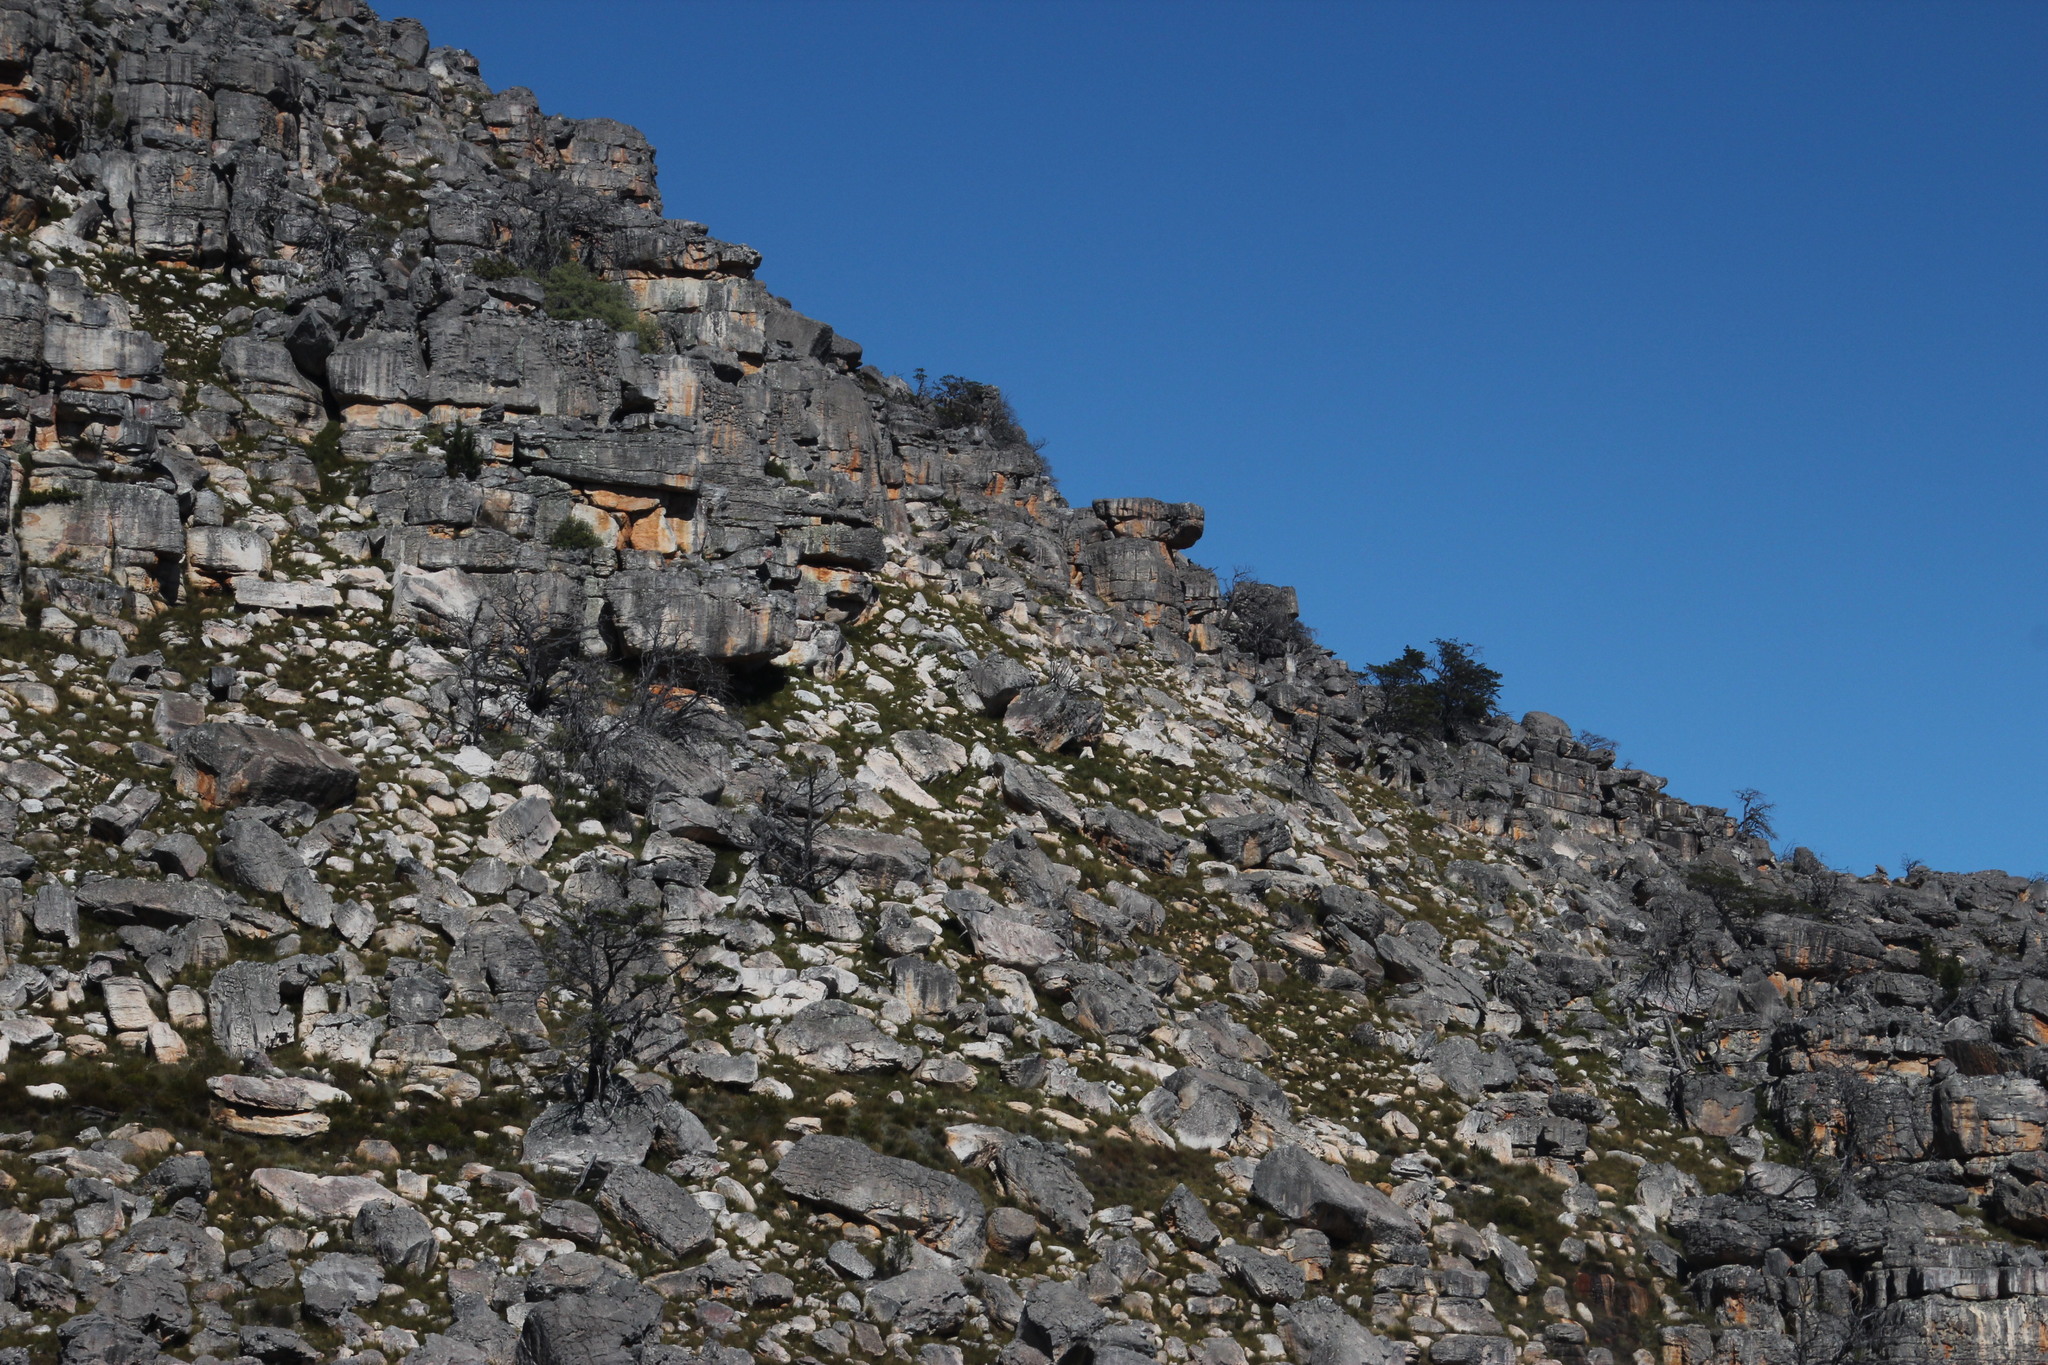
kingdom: Plantae
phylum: Tracheophyta
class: Pinopsida
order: Pinales
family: Cupressaceae
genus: Widdringtonia
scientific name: Widdringtonia nodiflora
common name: Cape cypress
